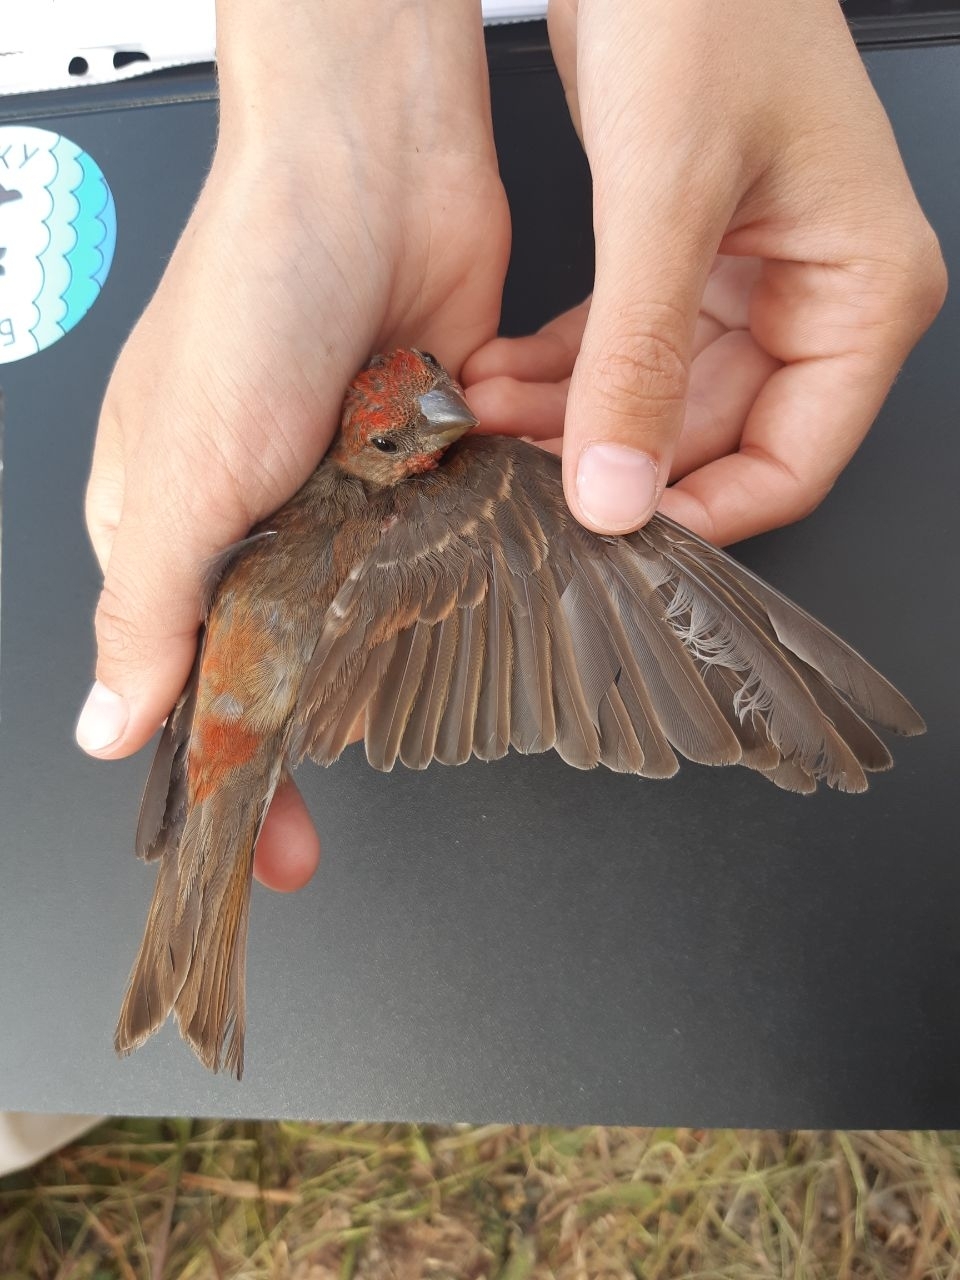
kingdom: Animalia
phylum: Chordata
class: Aves
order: Passeriformes
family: Fringillidae
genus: Carpodacus
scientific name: Carpodacus erythrinus
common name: Common rosefinch
